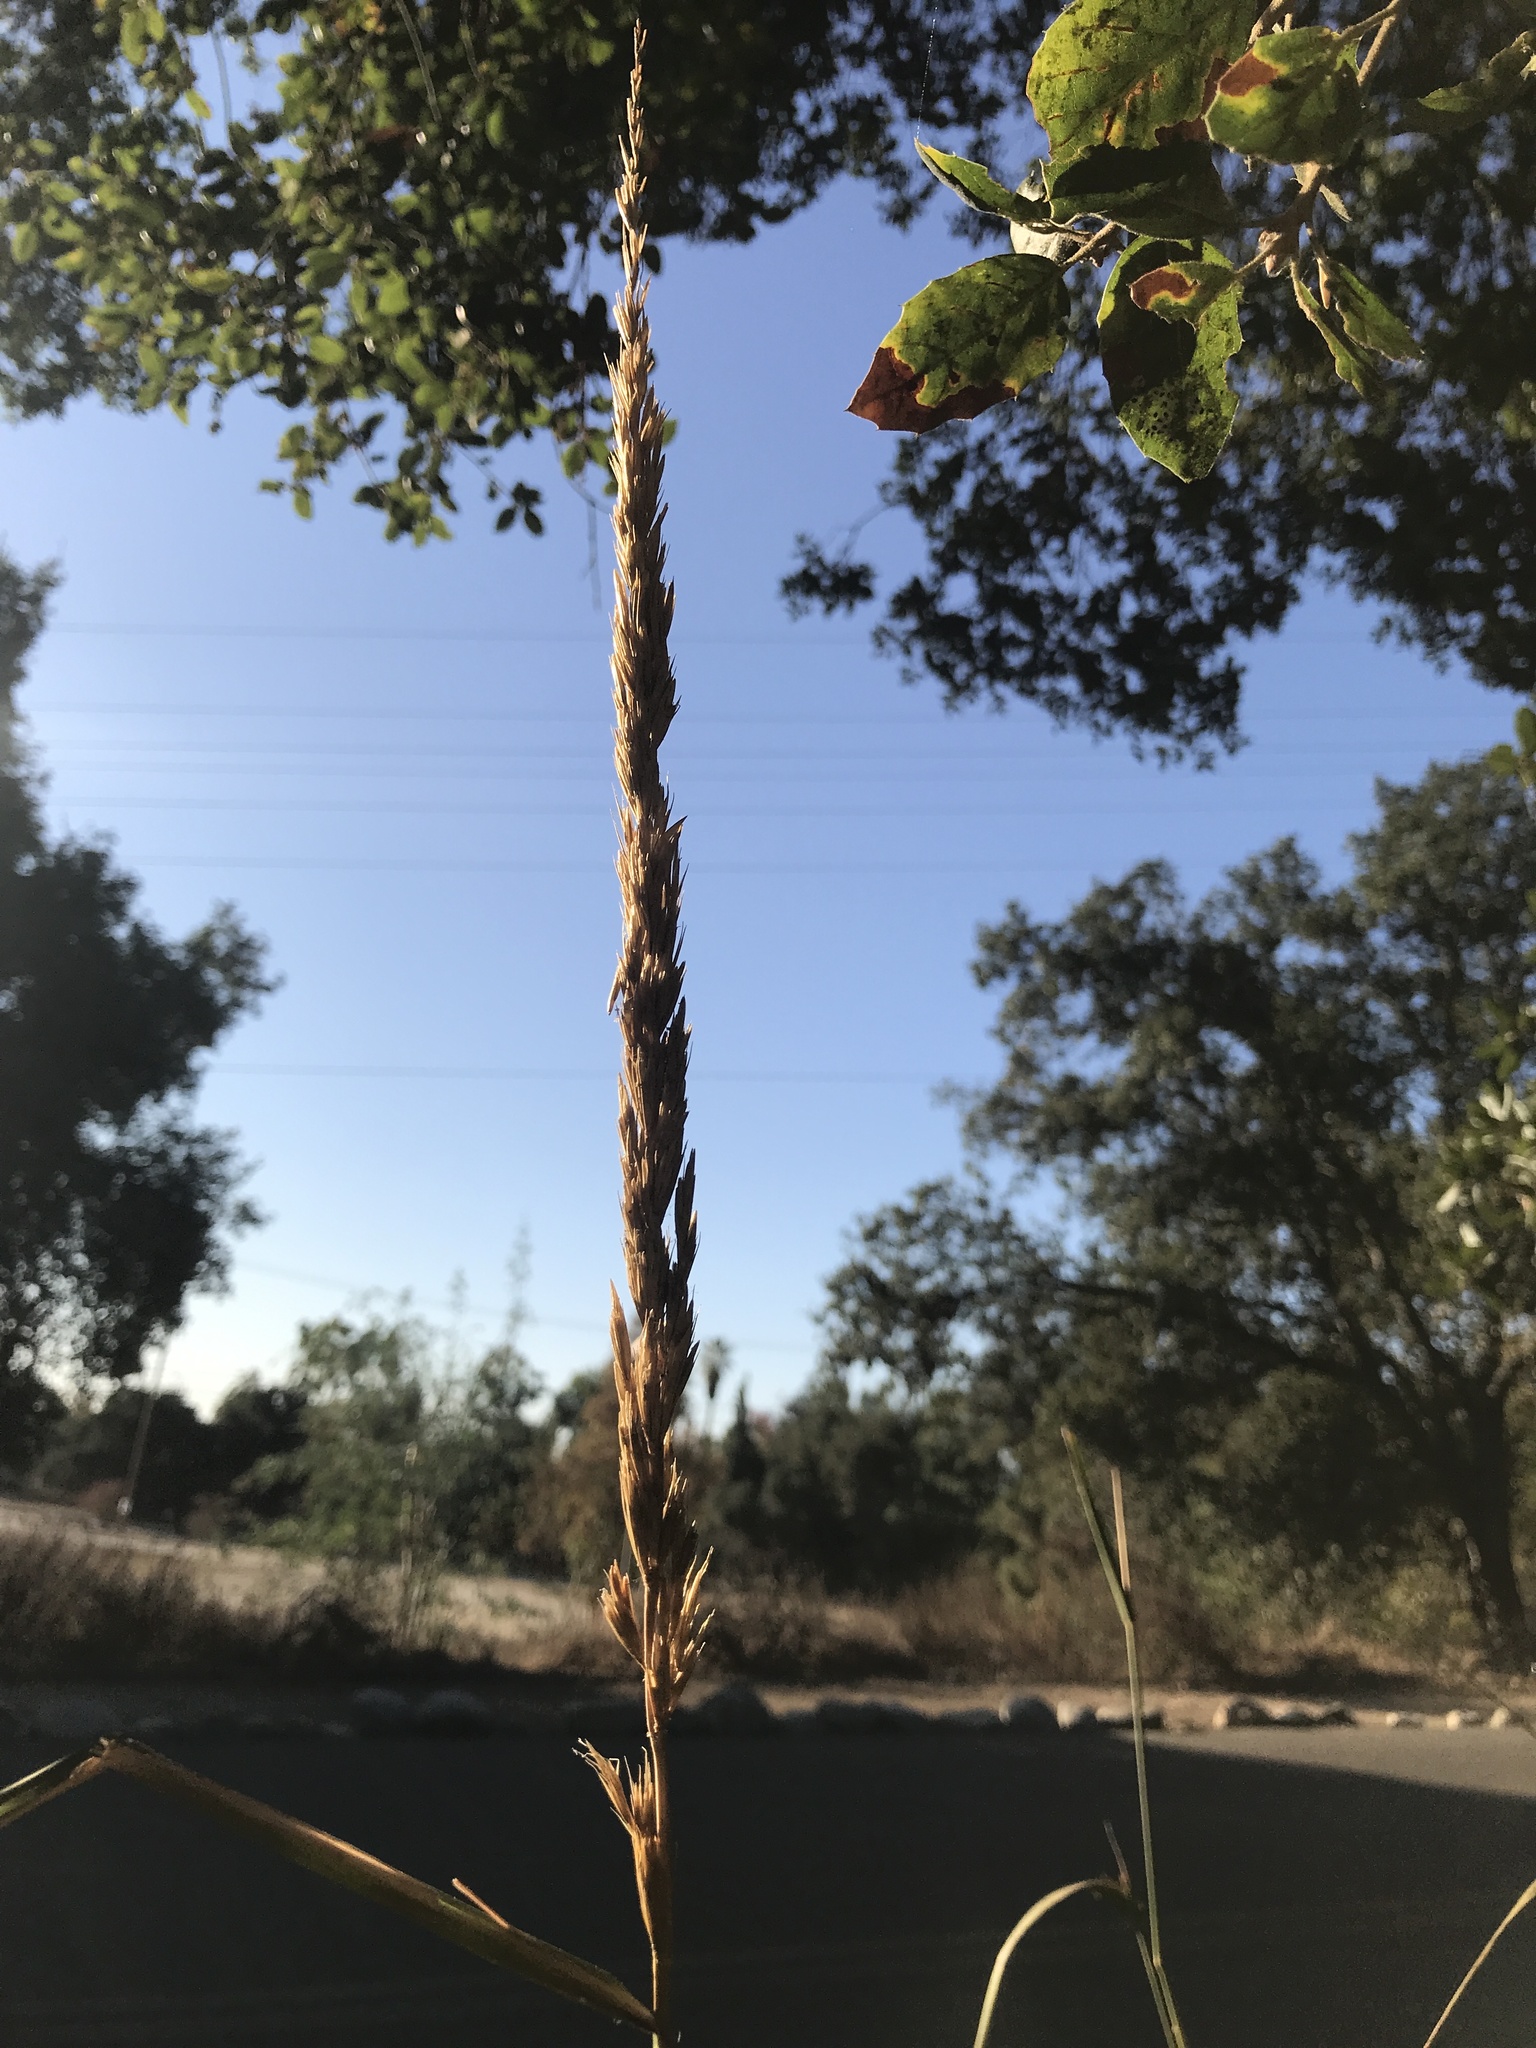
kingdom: Plantae
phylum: Tracheophyta
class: Liliopsida
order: Poales
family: Poaceae
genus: Leymus
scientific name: Leymus condensatus
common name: Giant wild rye
